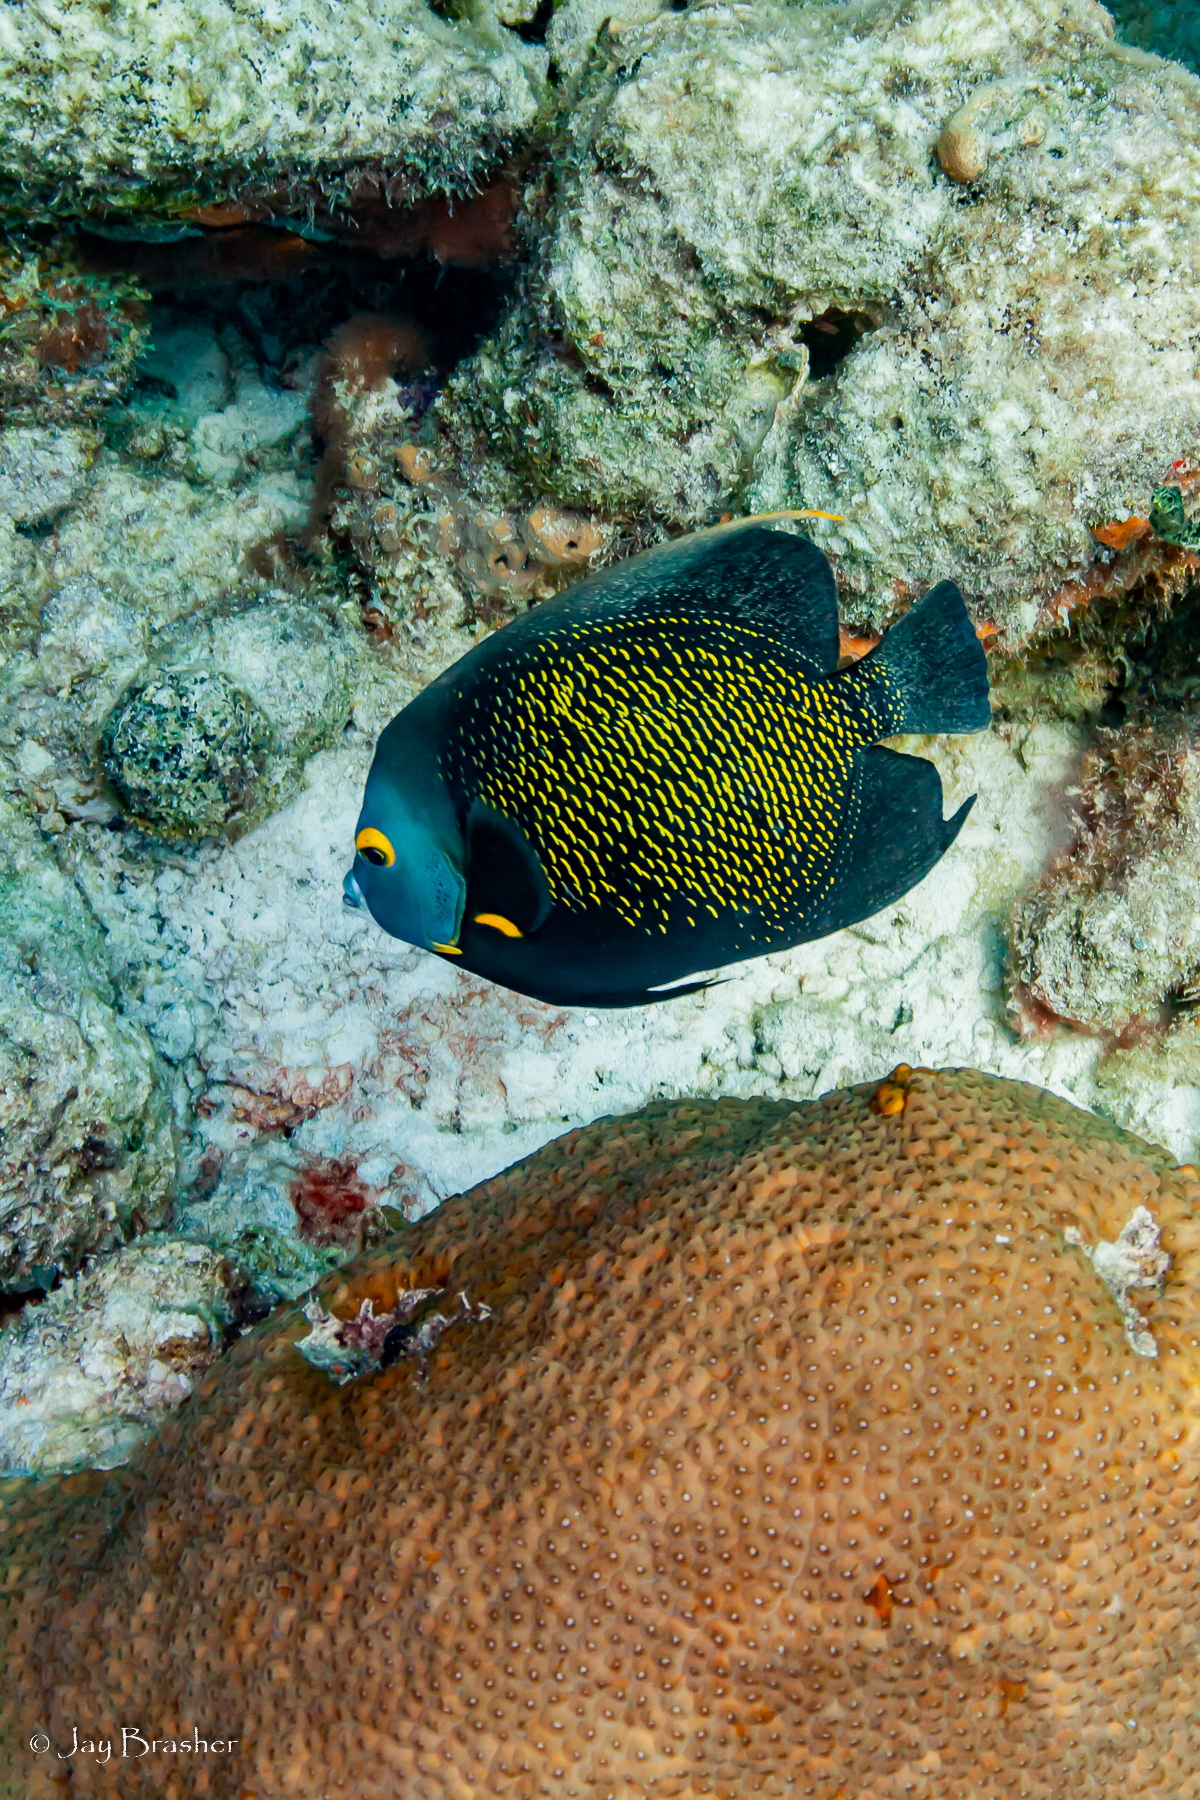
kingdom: Animalia
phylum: Chordata
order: Perciformes
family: Pomacanthidae
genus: Pomacanthus
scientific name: Pomacanthus paru
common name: French angelfish
